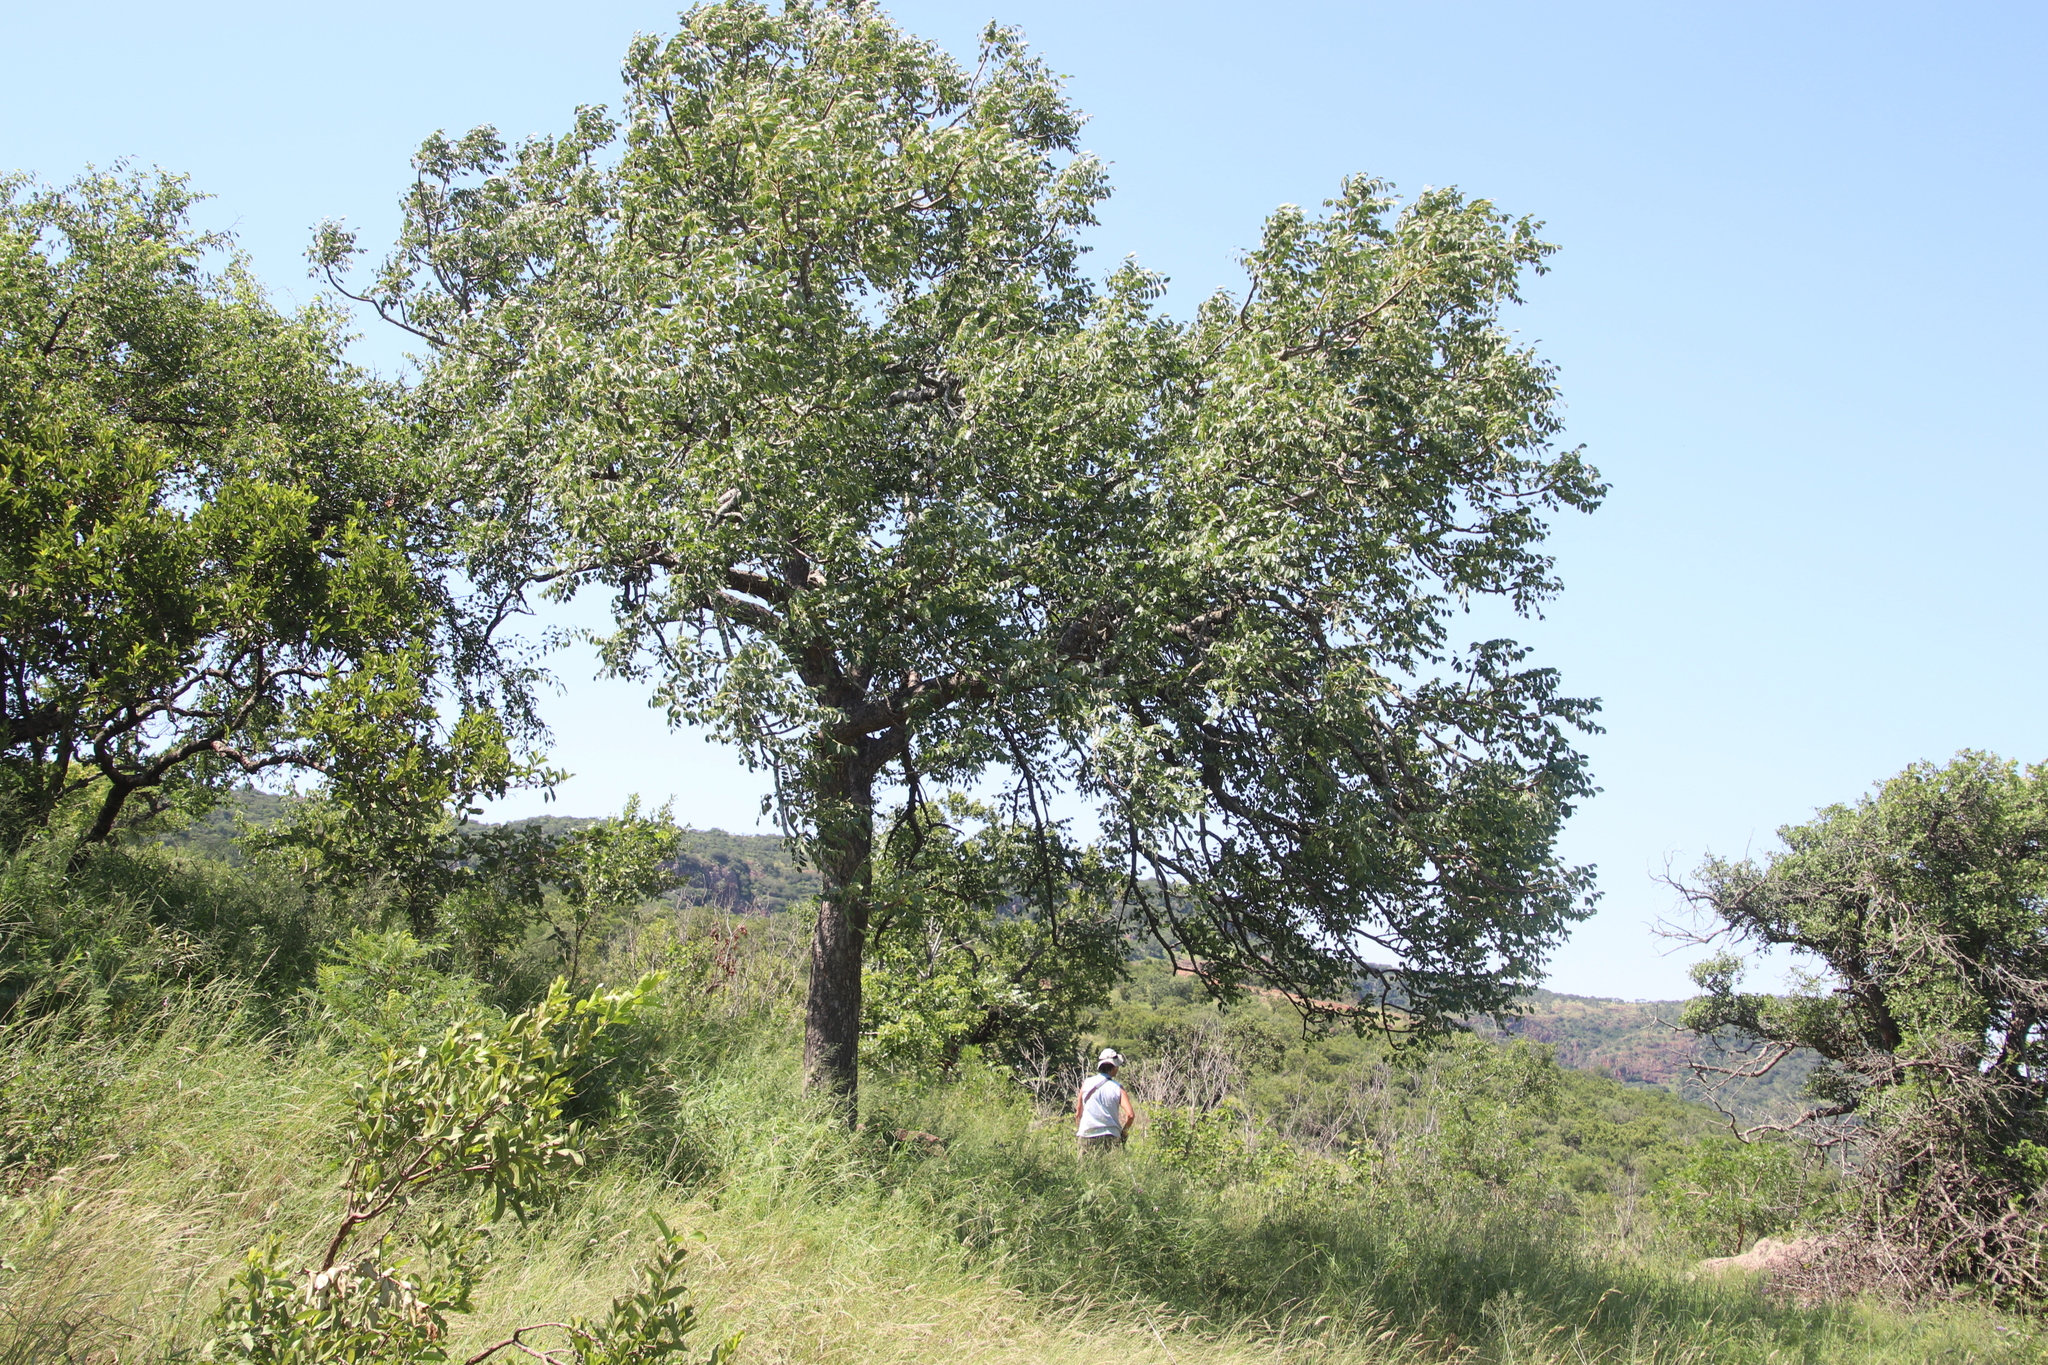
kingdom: Plantae
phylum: Tracheophyta
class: Magnoliopsida
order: Sapindales
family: Anacardiaceae
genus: Sclerocarya
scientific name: Sclerocarya birrea
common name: Marula
